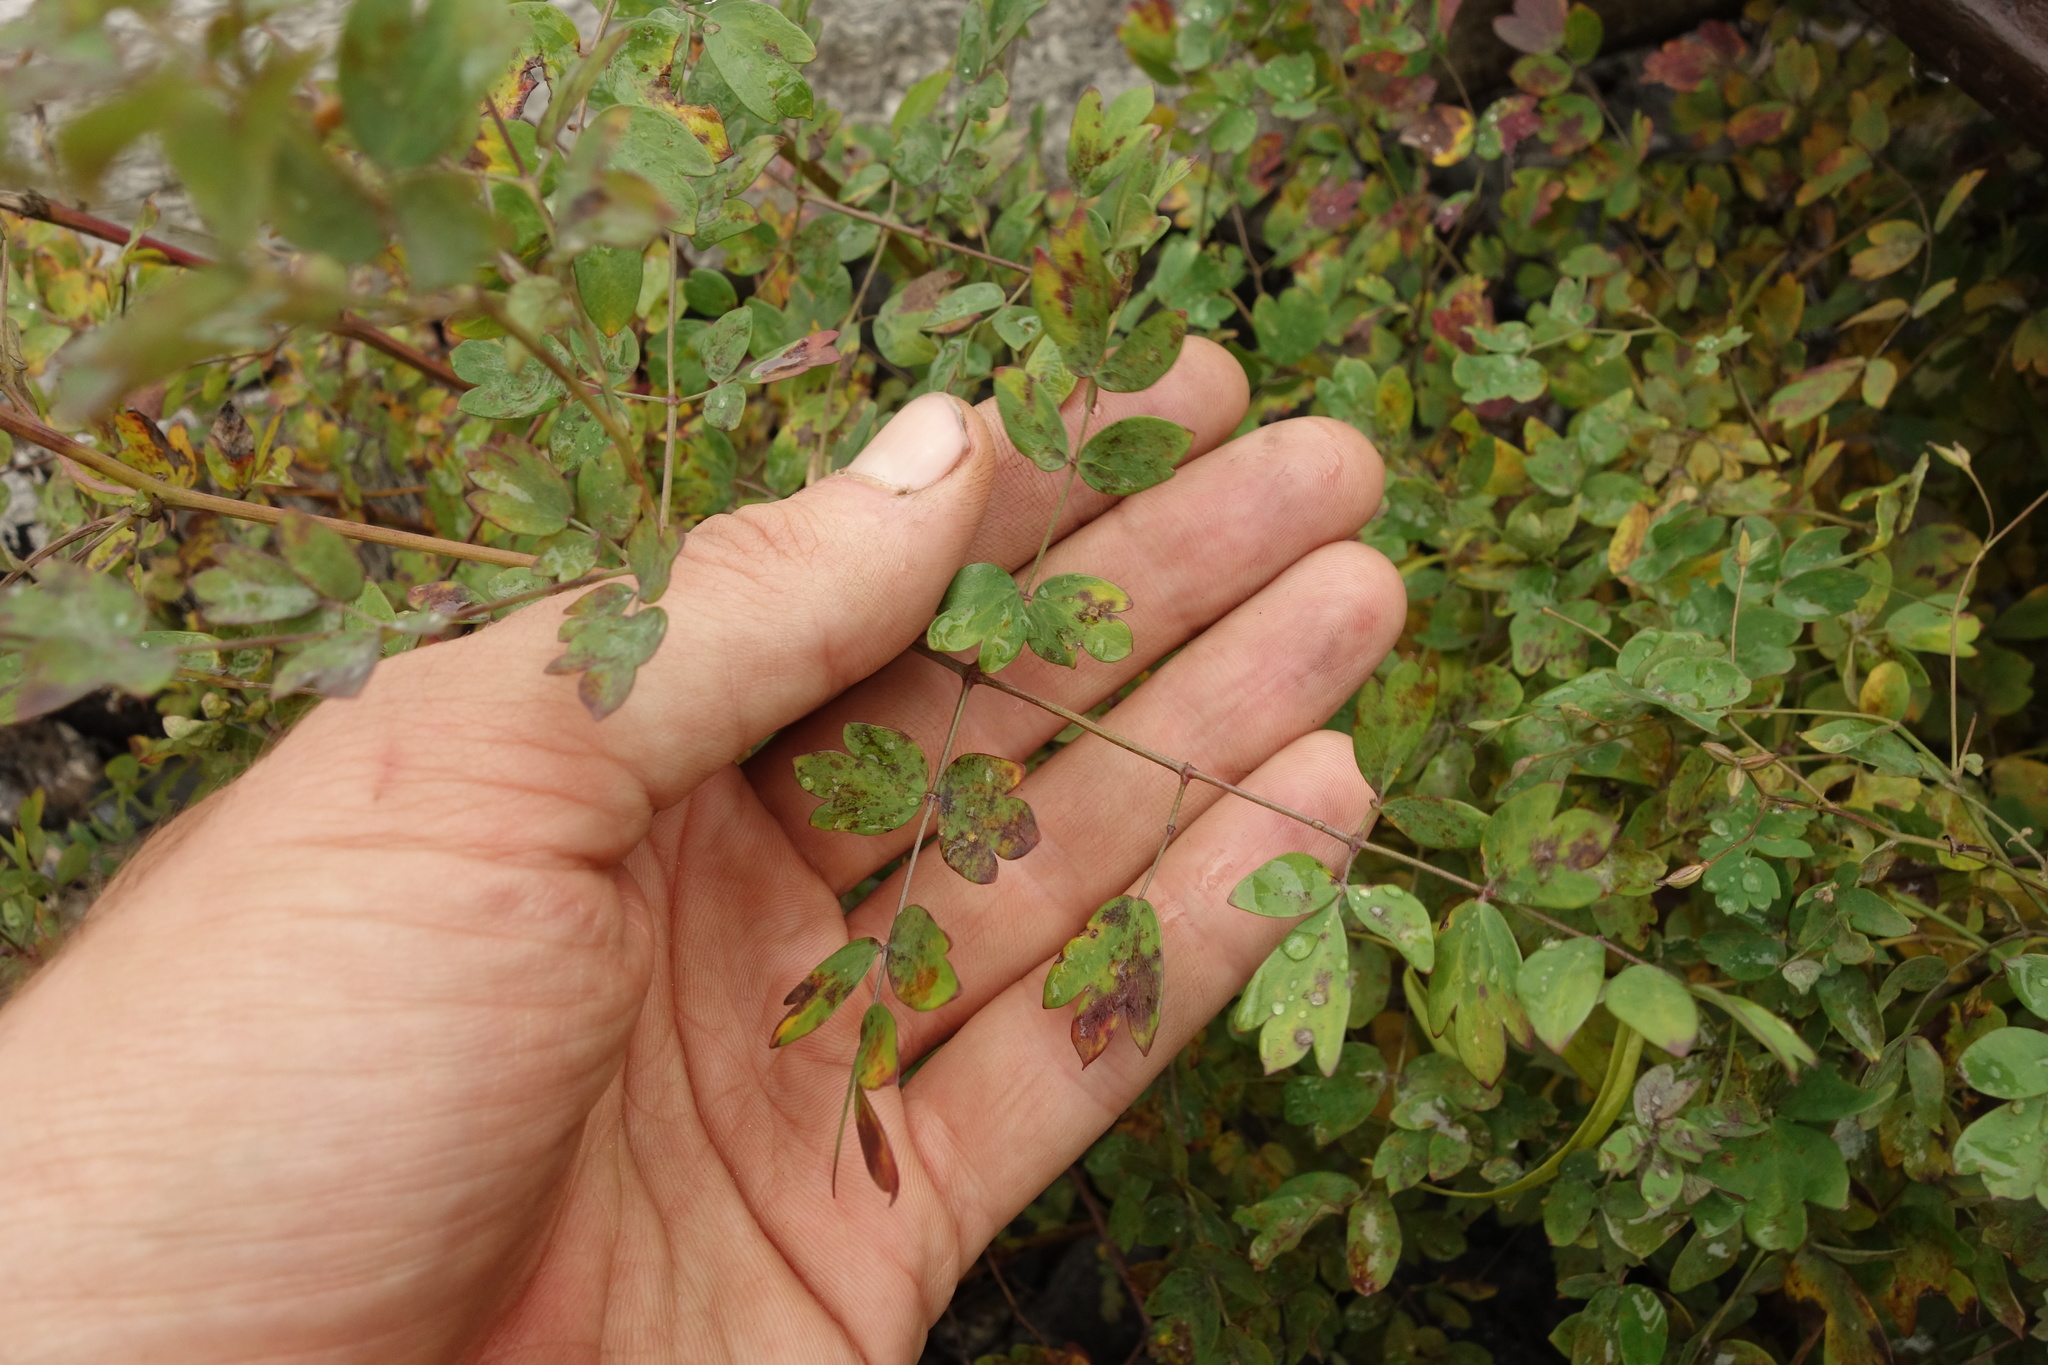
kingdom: Plantae
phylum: Tracheophyta
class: Magnoliopsida
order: Ranunculales
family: Ranunculaceae
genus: Thalictrum
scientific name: Thalictrum squarrosum
